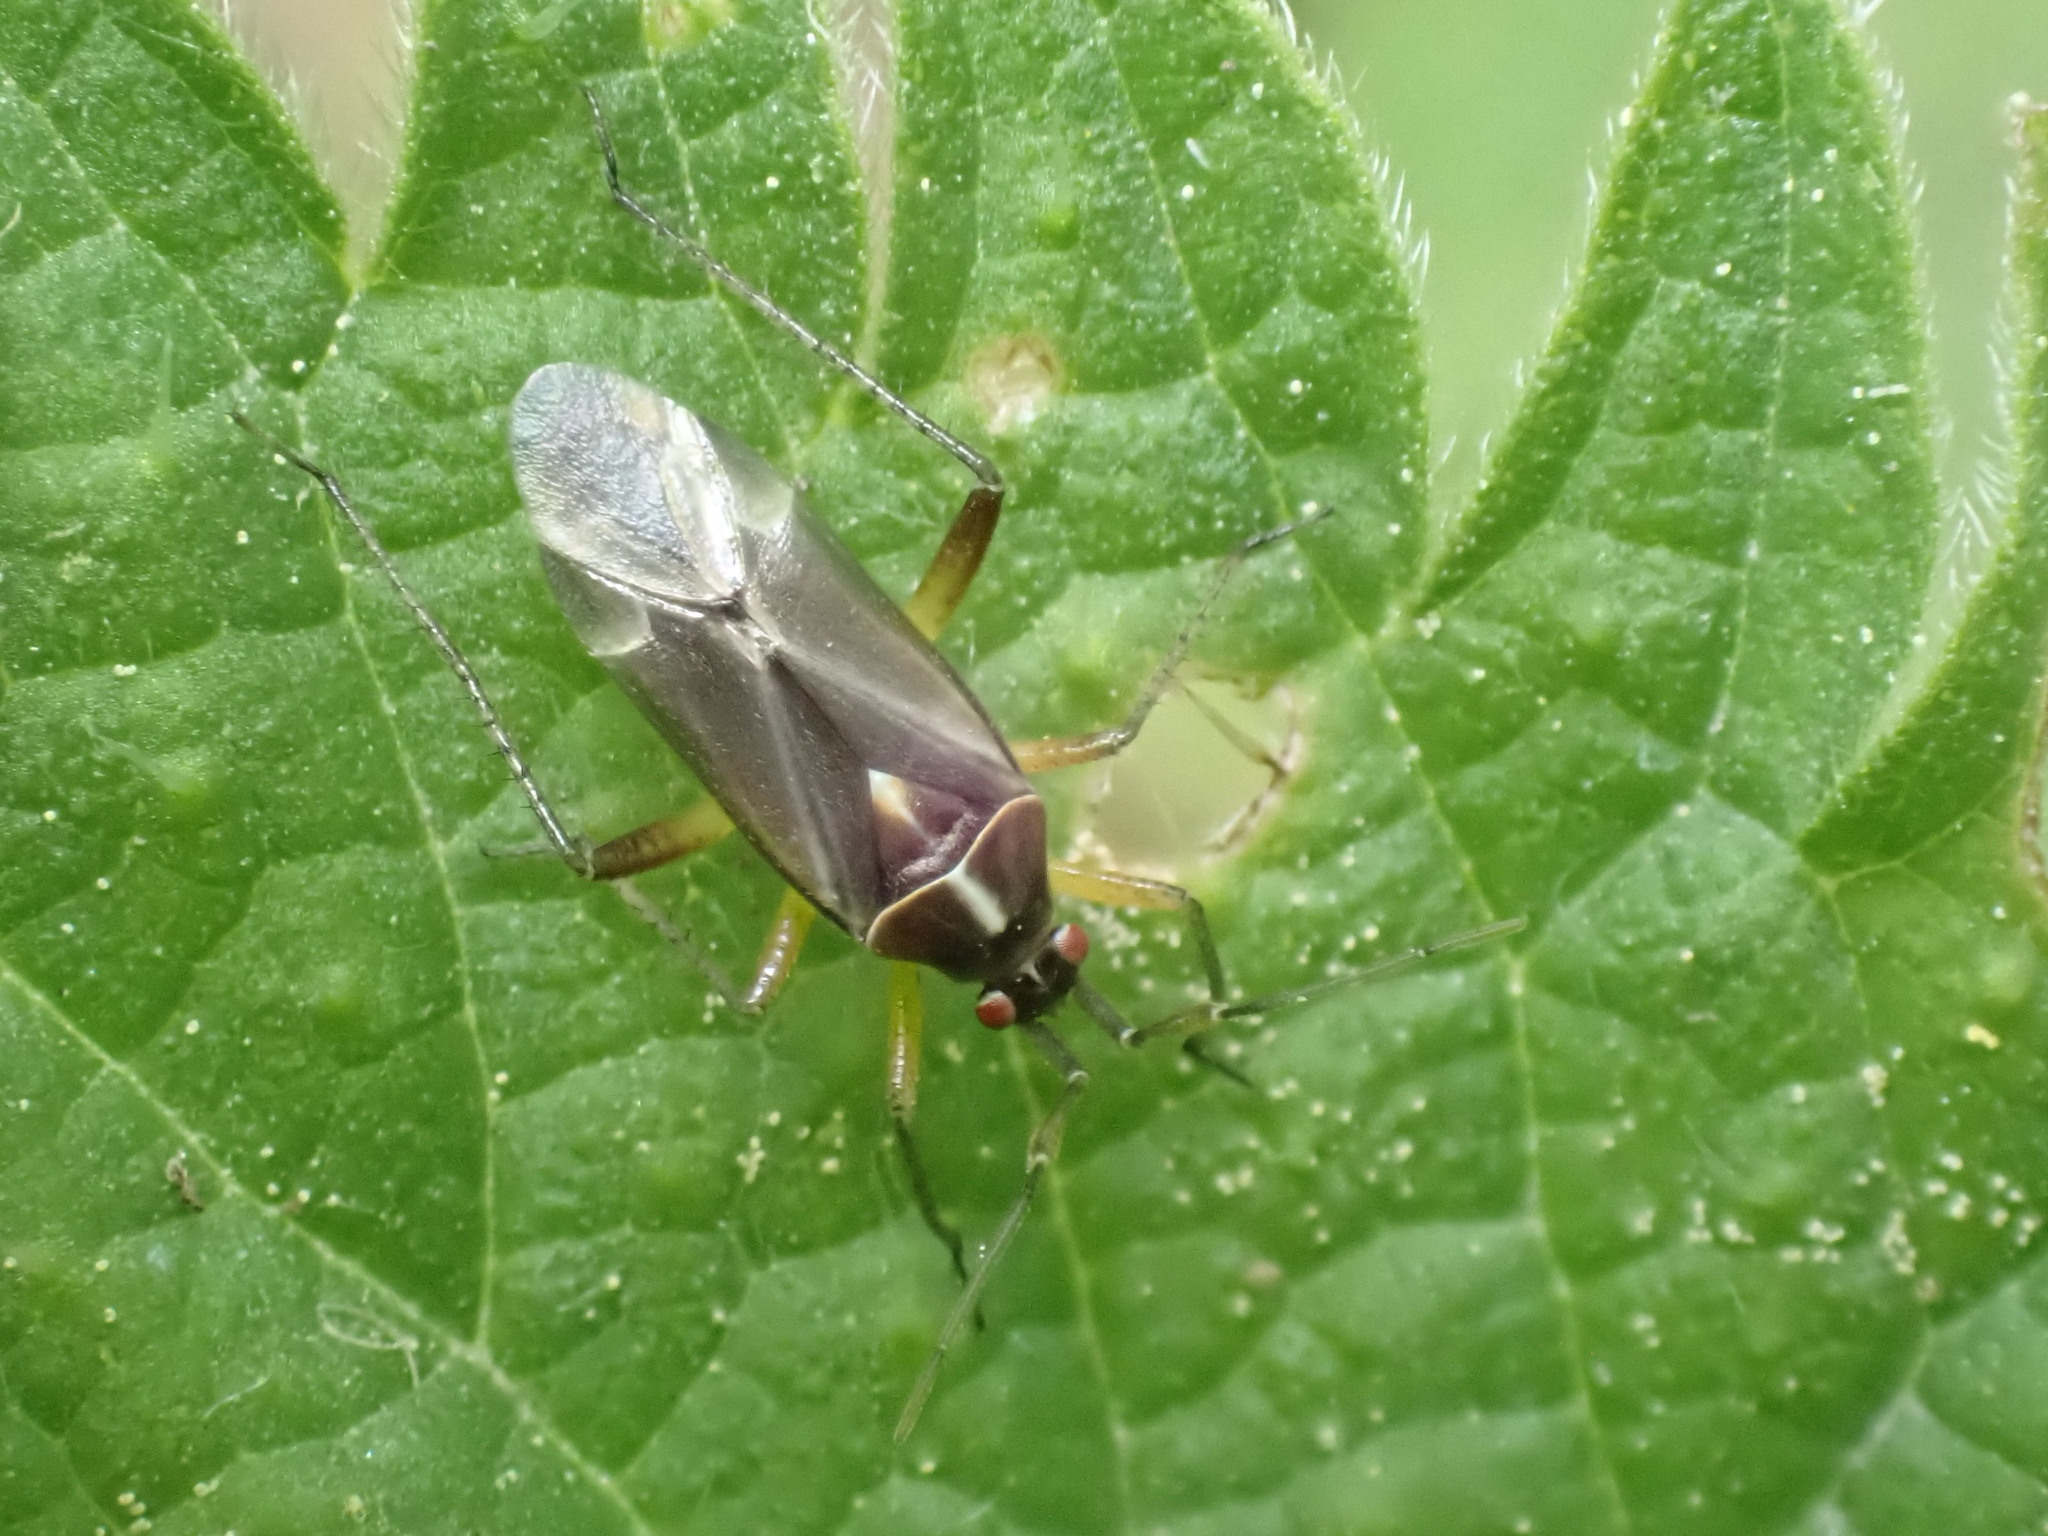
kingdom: Animalia
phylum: Arthropoda
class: Insecta
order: Hemiptera
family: Miridae
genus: Harpocera
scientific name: Harpocera thoracica
